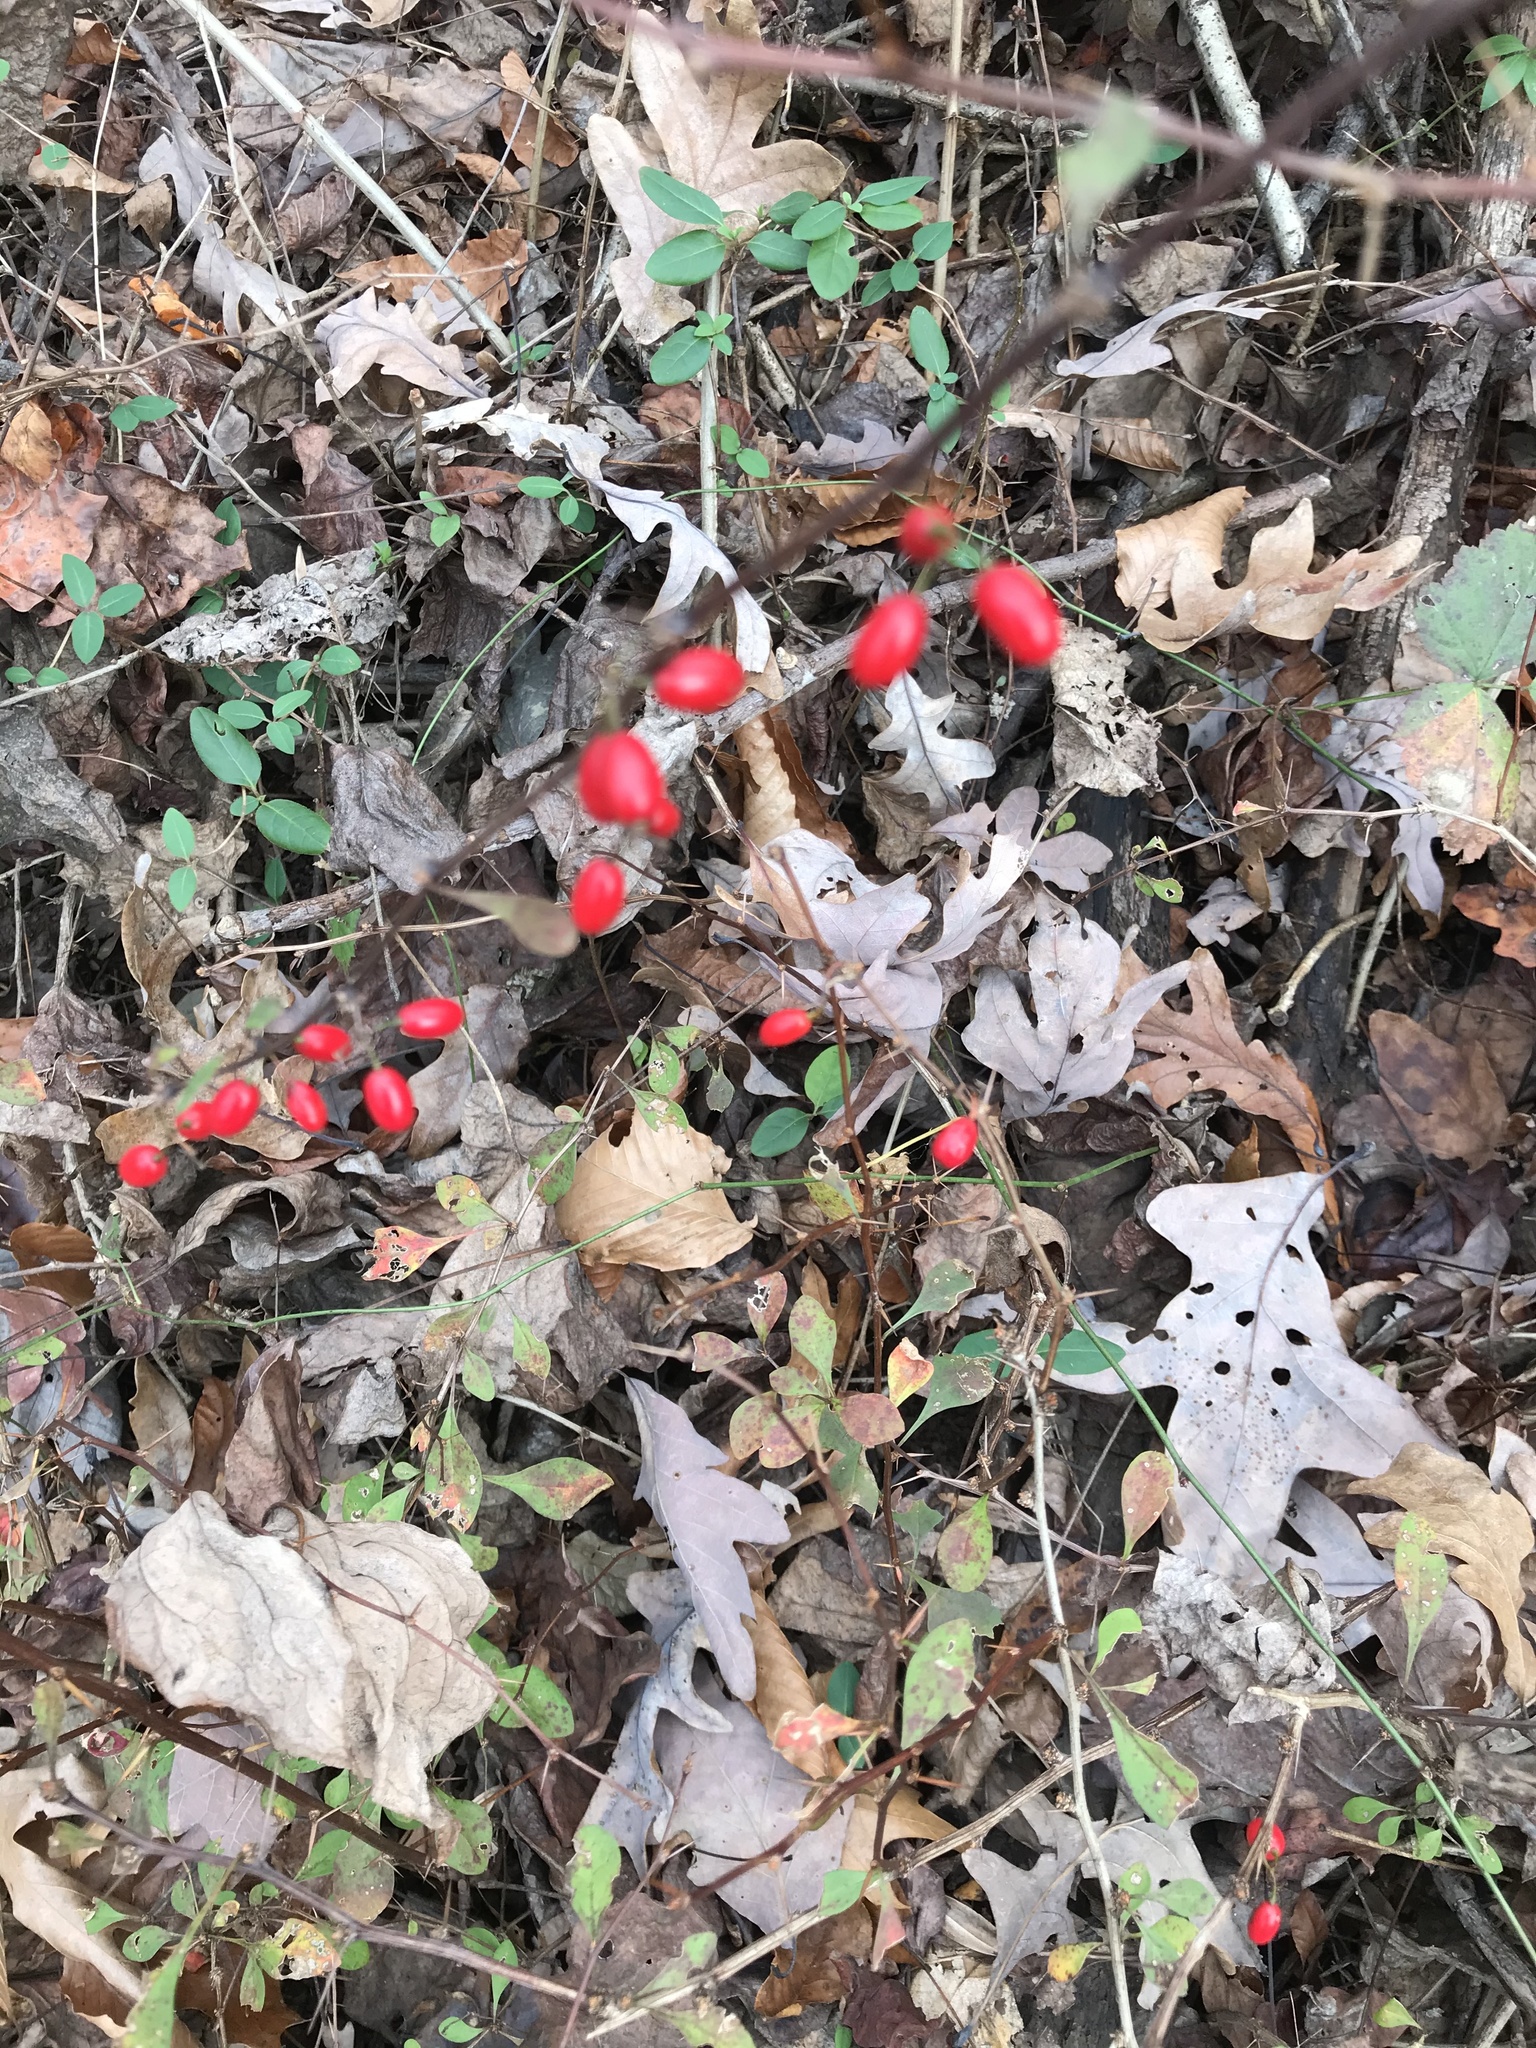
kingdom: Plantae
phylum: Tracheophyta
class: Magnoliopsida
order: Ranunculales
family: Berberidaceae
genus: Berberis
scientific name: Berberis thunbergii
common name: Japanese barberry
